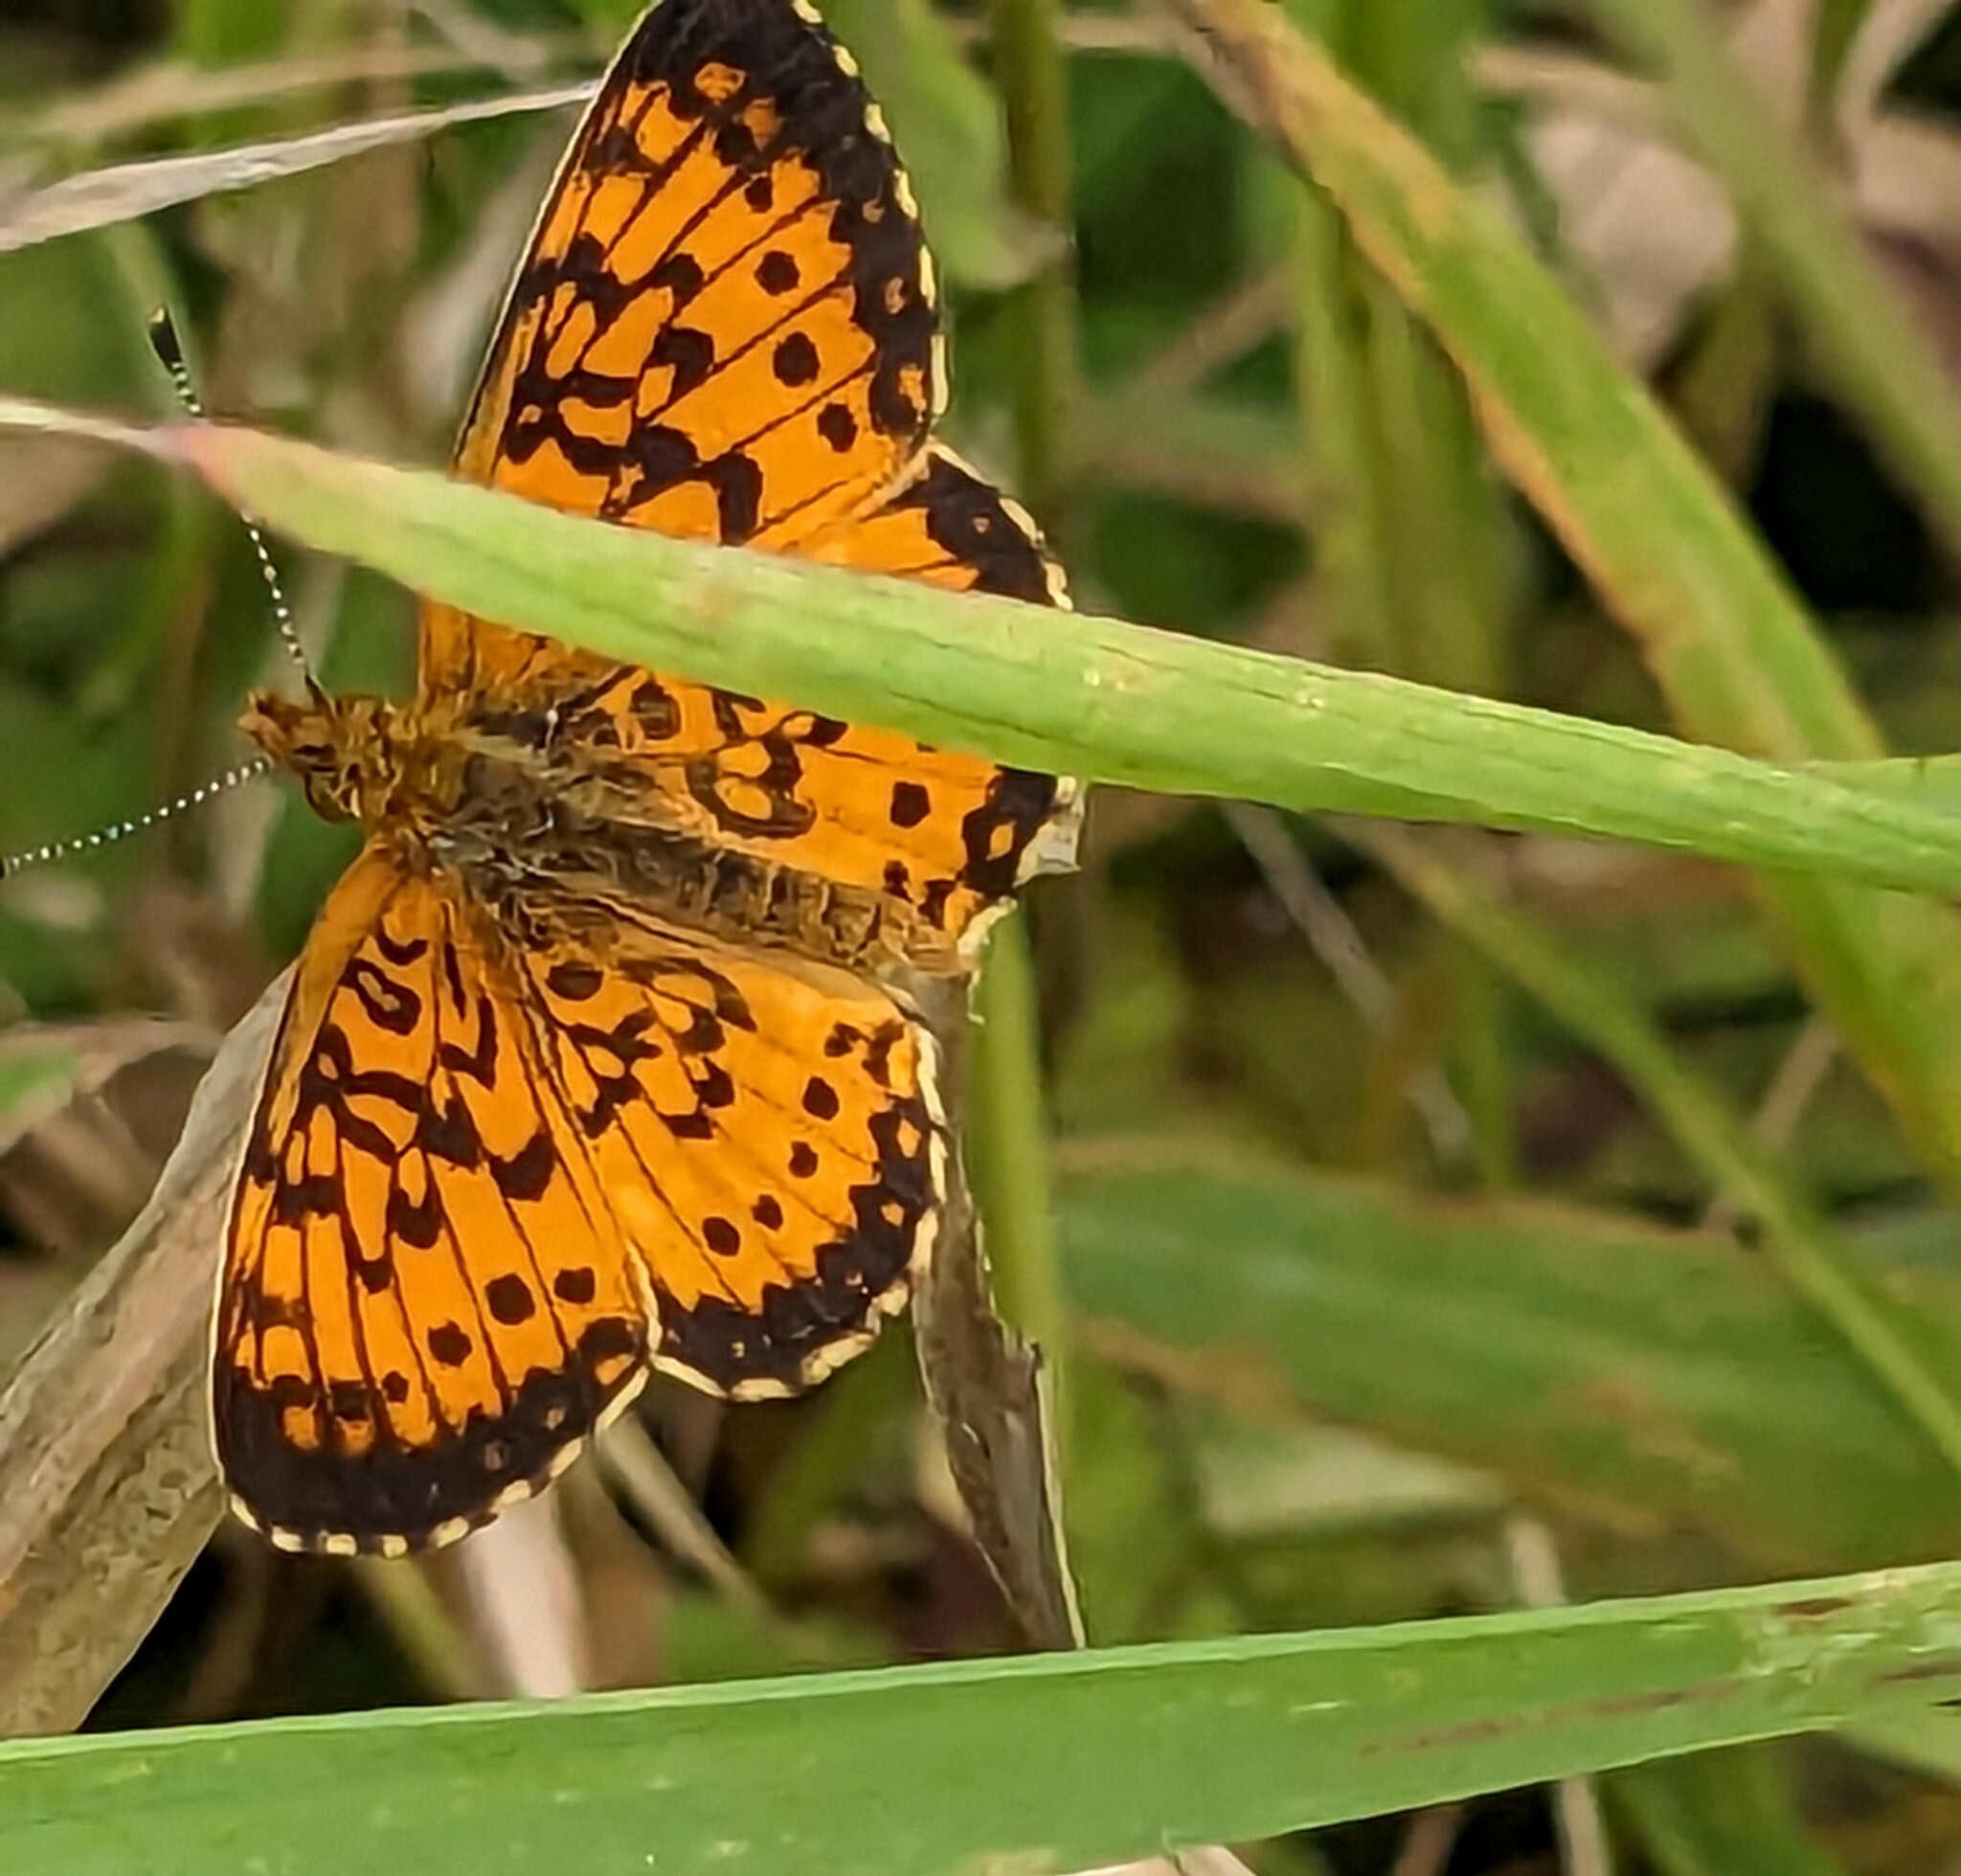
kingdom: Animalia
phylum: Arthropoda
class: Insecta
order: Lepidoptera
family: Nymphalidae
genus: Boloria
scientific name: Boloria
